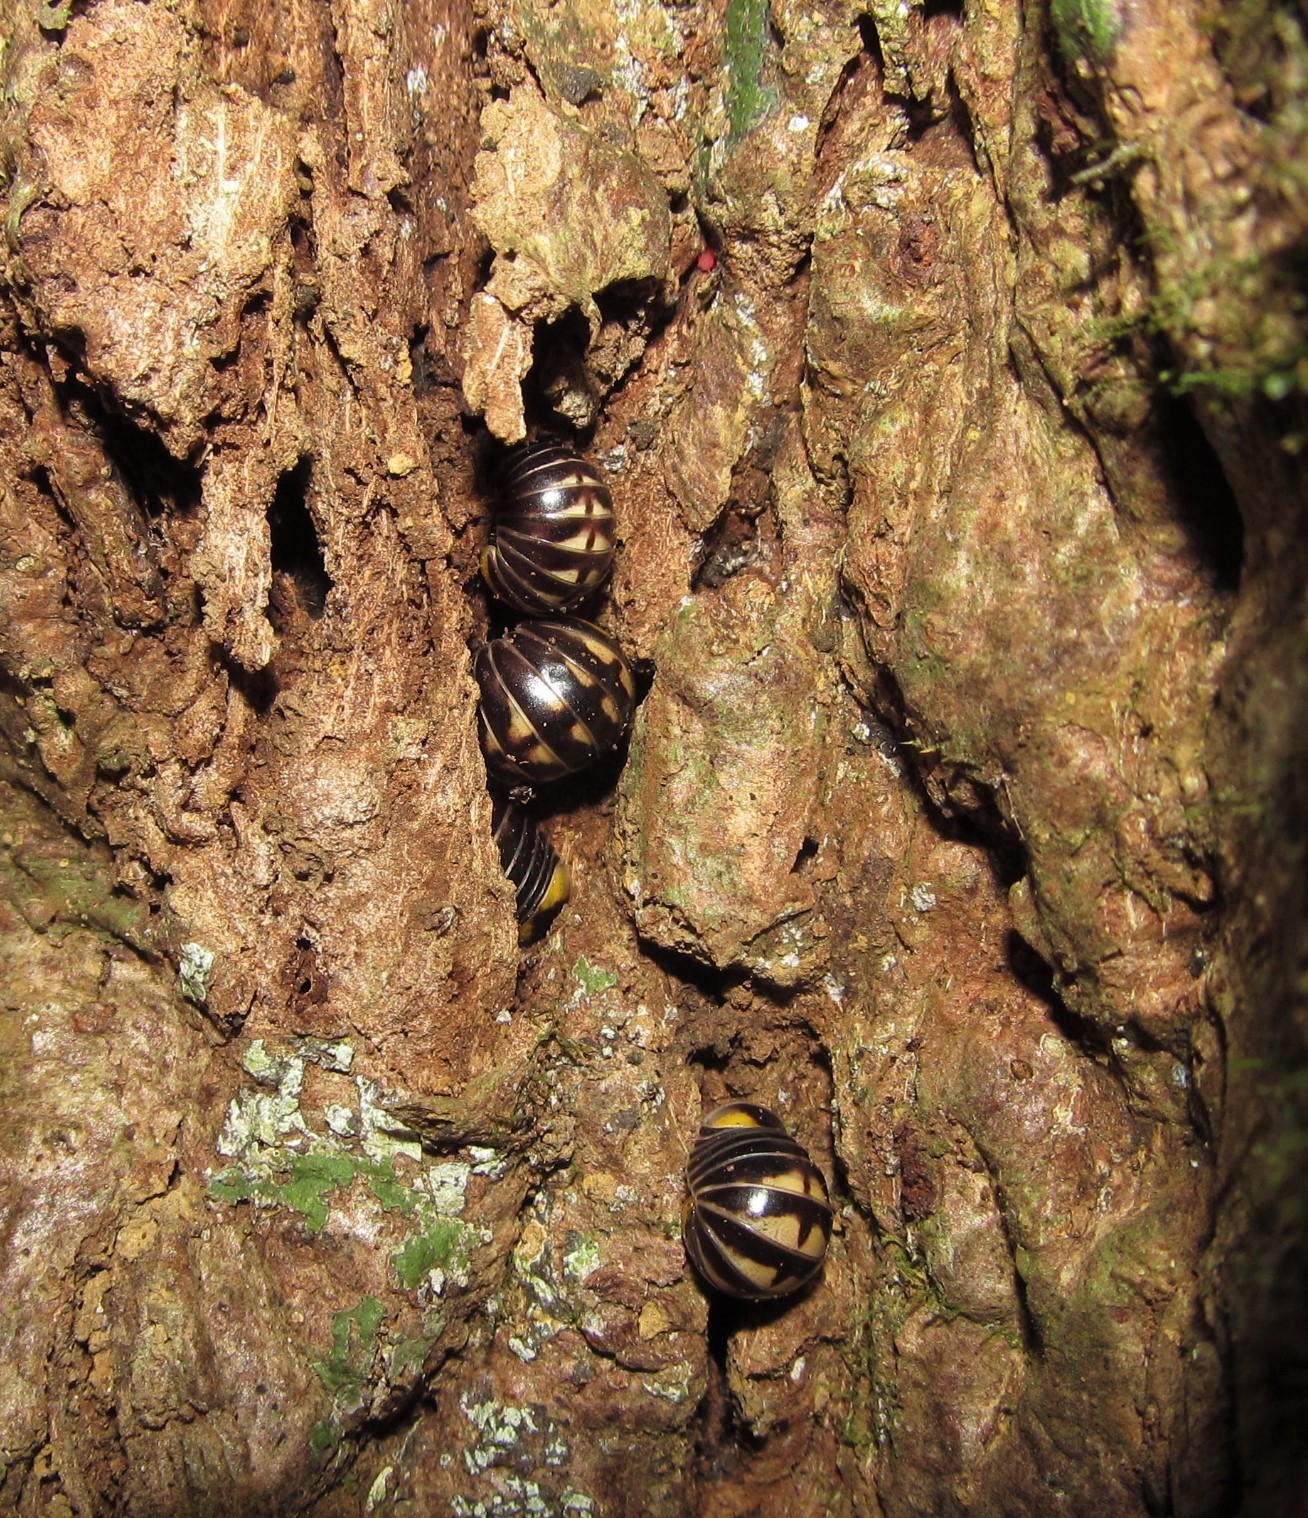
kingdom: Animalia
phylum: Arthropoda
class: Diplopoda
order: Glomerida
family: Glomeridae
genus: Hyleoglomeris
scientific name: Hyleoglomeris lobus
